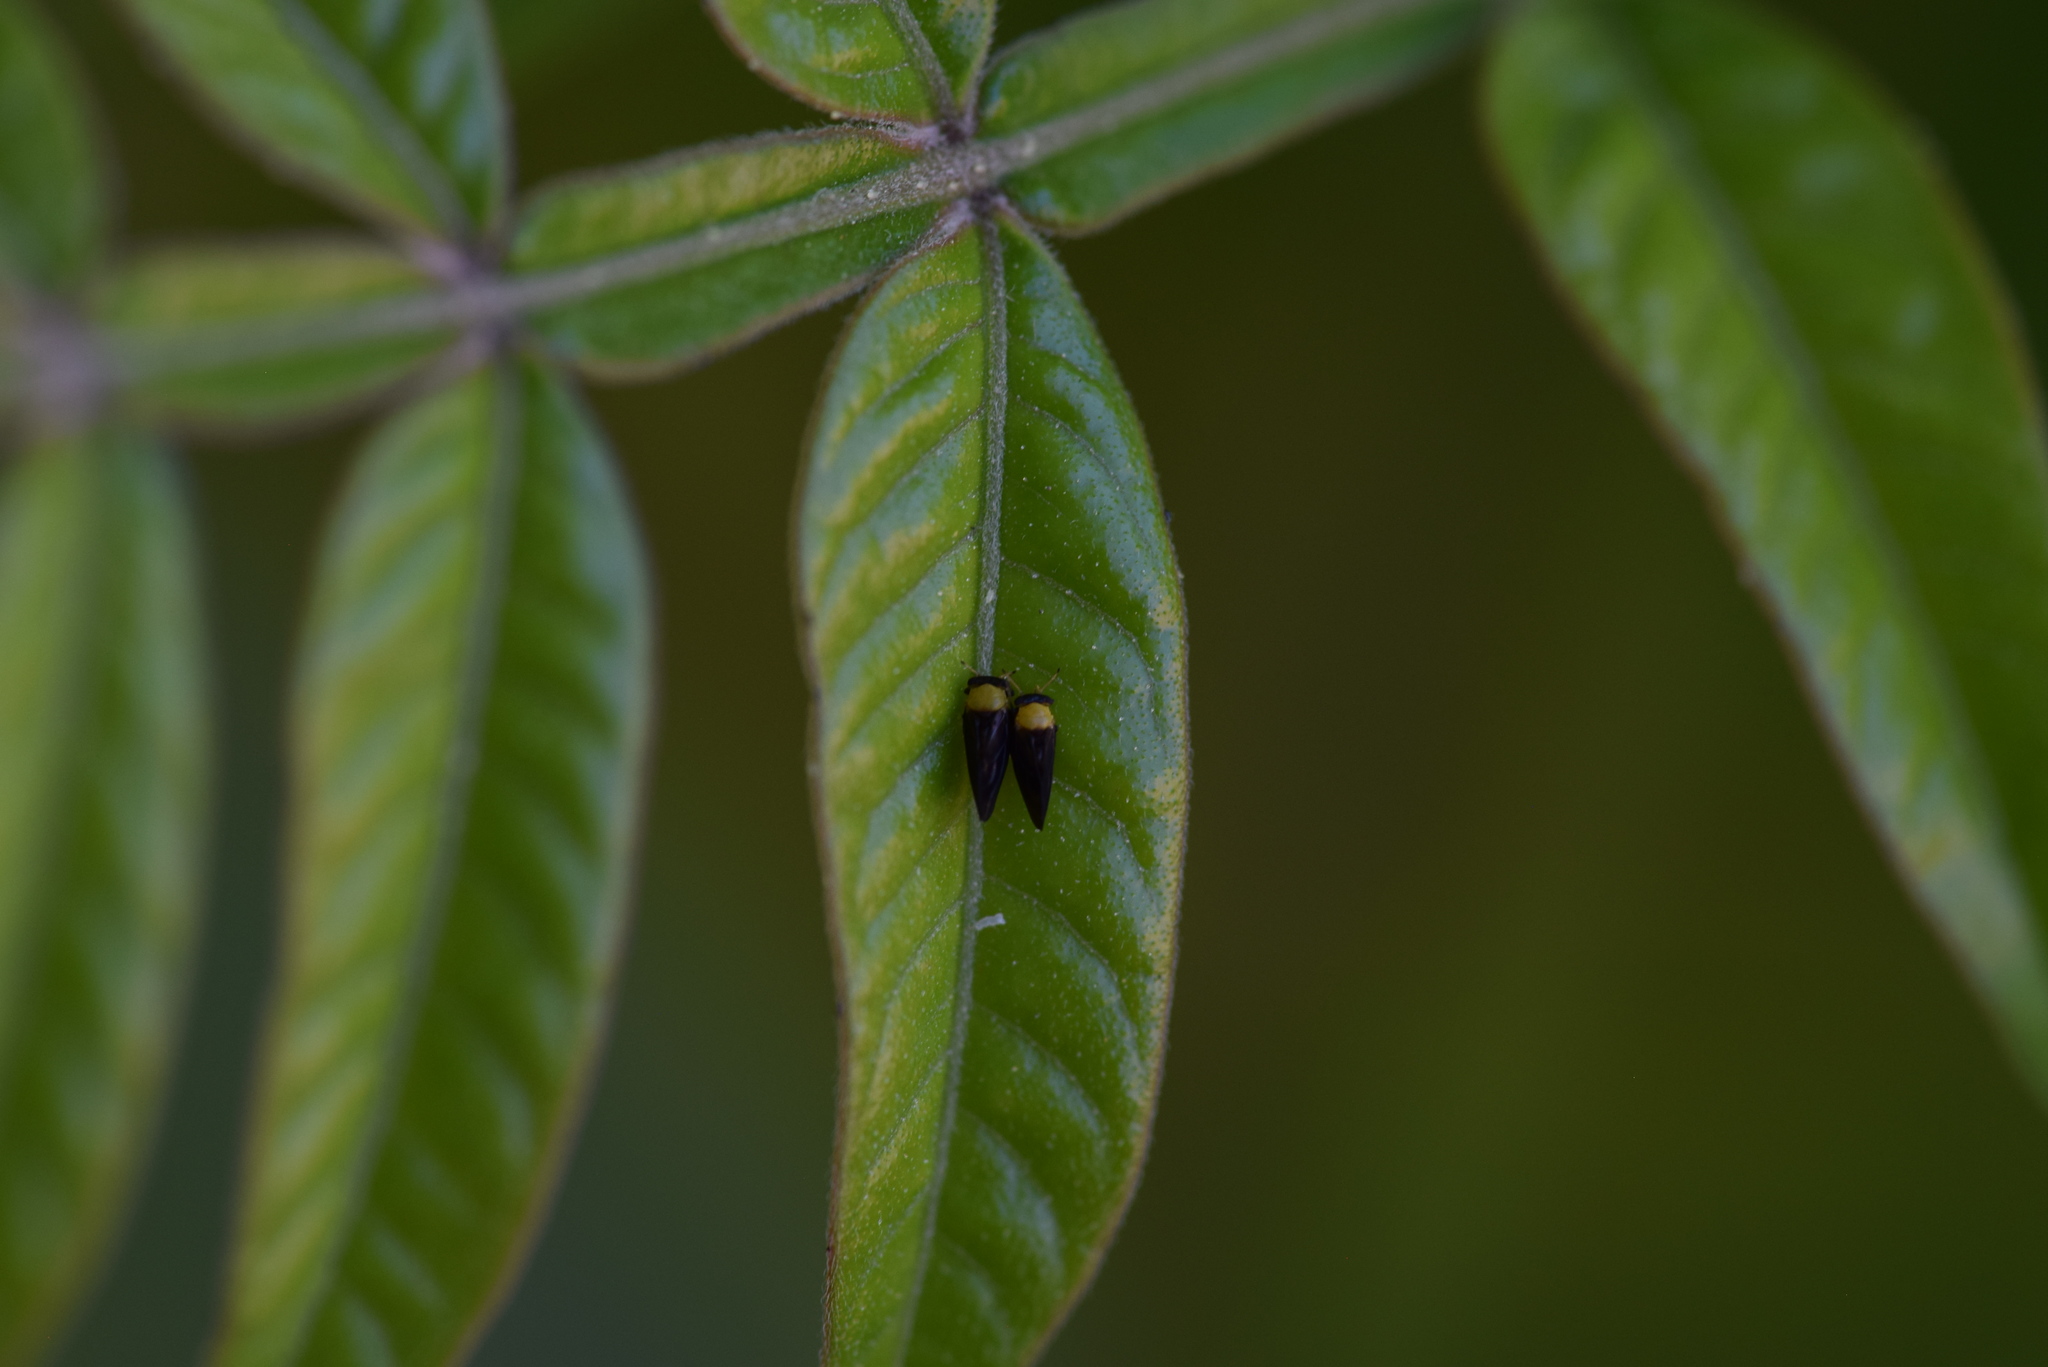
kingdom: Animalia
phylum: Arthropoda
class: Insecta
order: Hemiptera
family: Calophyidae
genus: Calophya
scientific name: Calophya nigripennis
